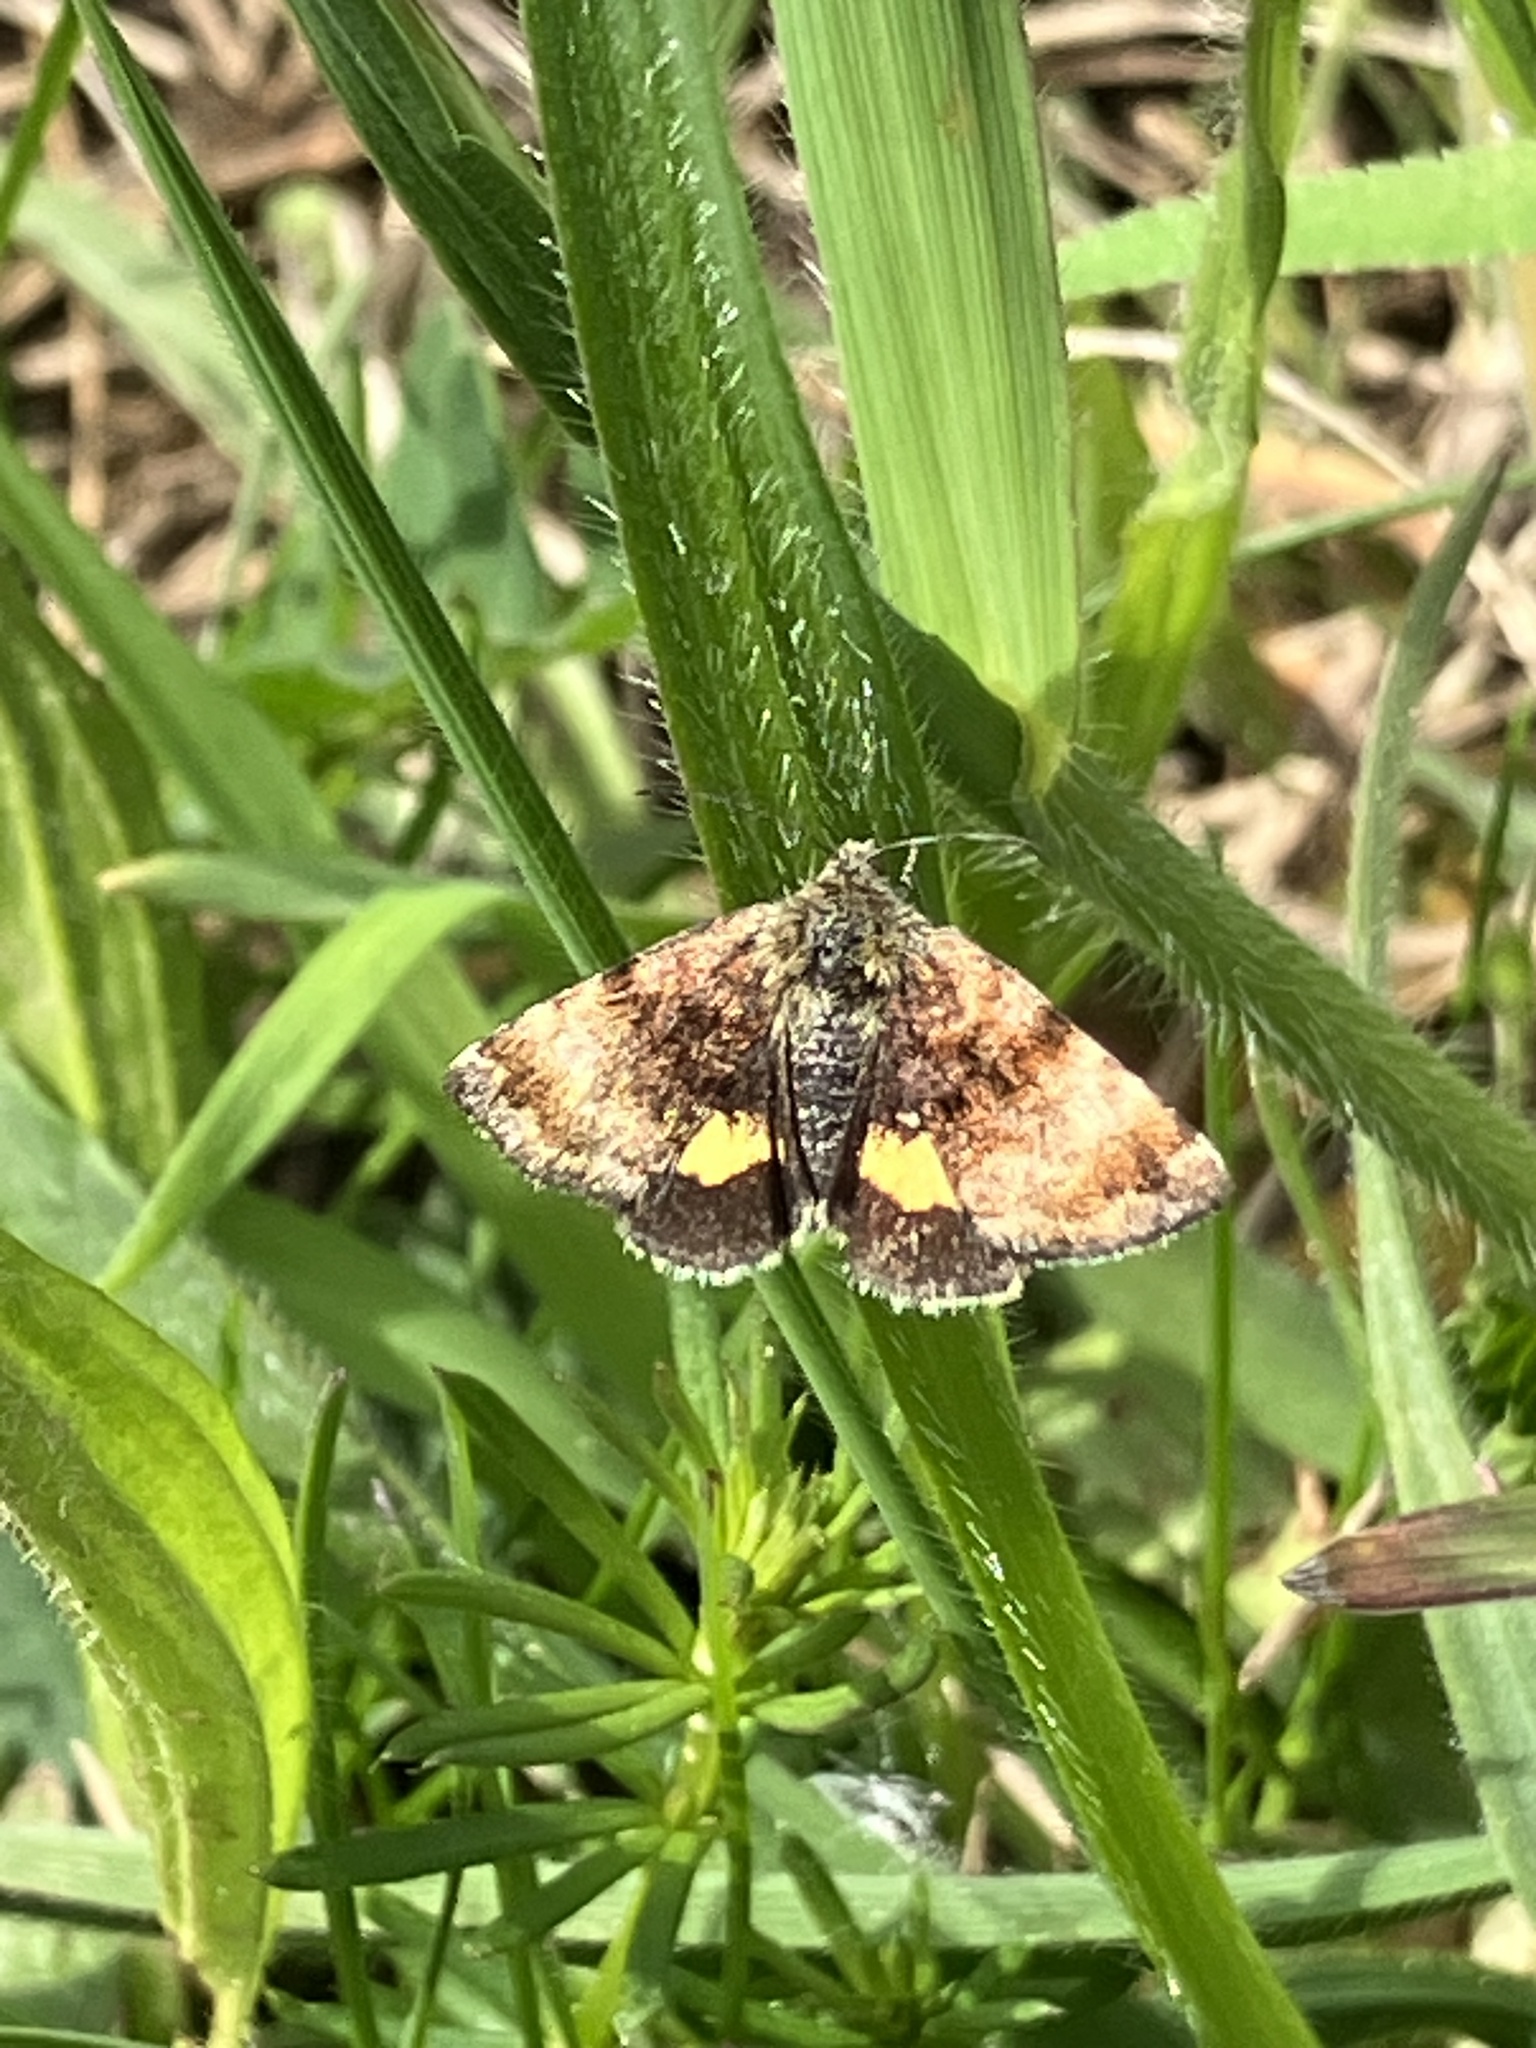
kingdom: Animalia
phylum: Arthropoda
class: Insecta
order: Lepidoptera
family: Noctuidae
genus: Panemeria
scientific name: Panemeria tenebrata
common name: Small yellow underwing
